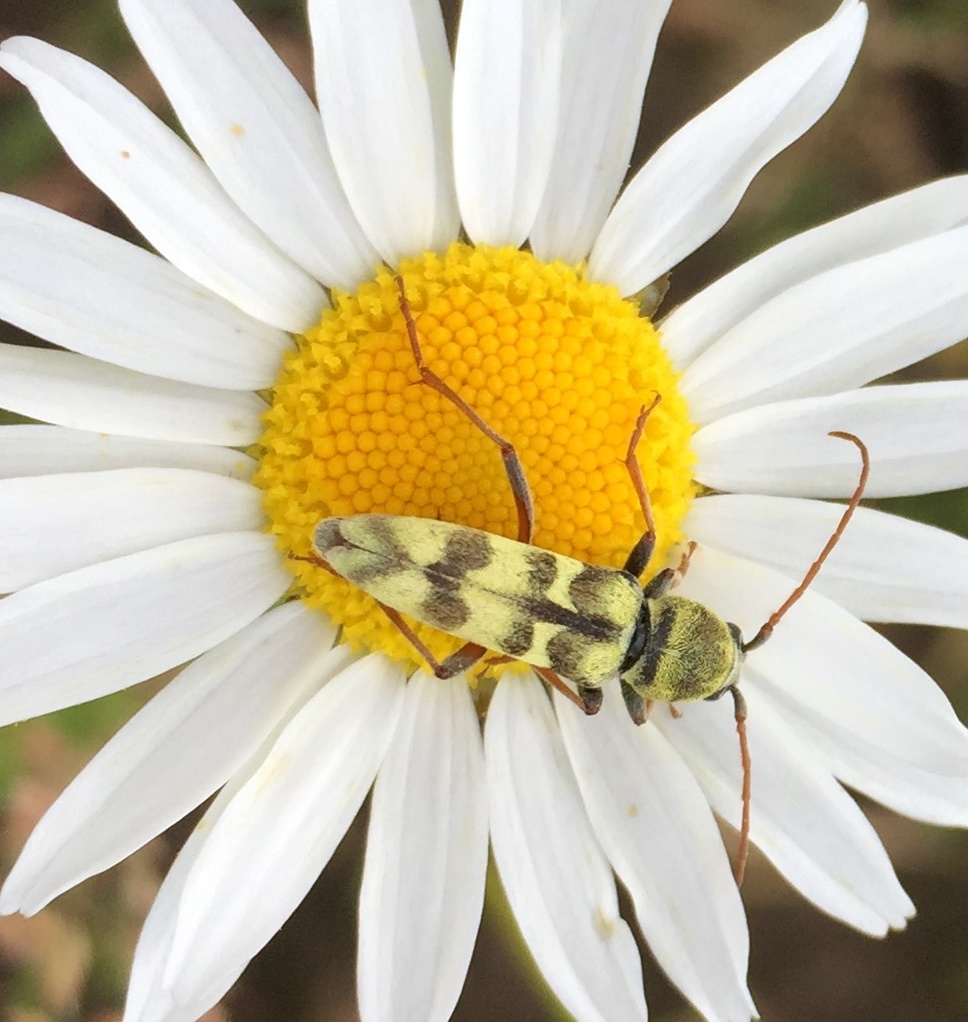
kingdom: Animalia
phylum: Arthropoda
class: Insecta
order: Coleoptera
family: Cerambycidae
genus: Plagionotus
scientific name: Plagionotus floralis
